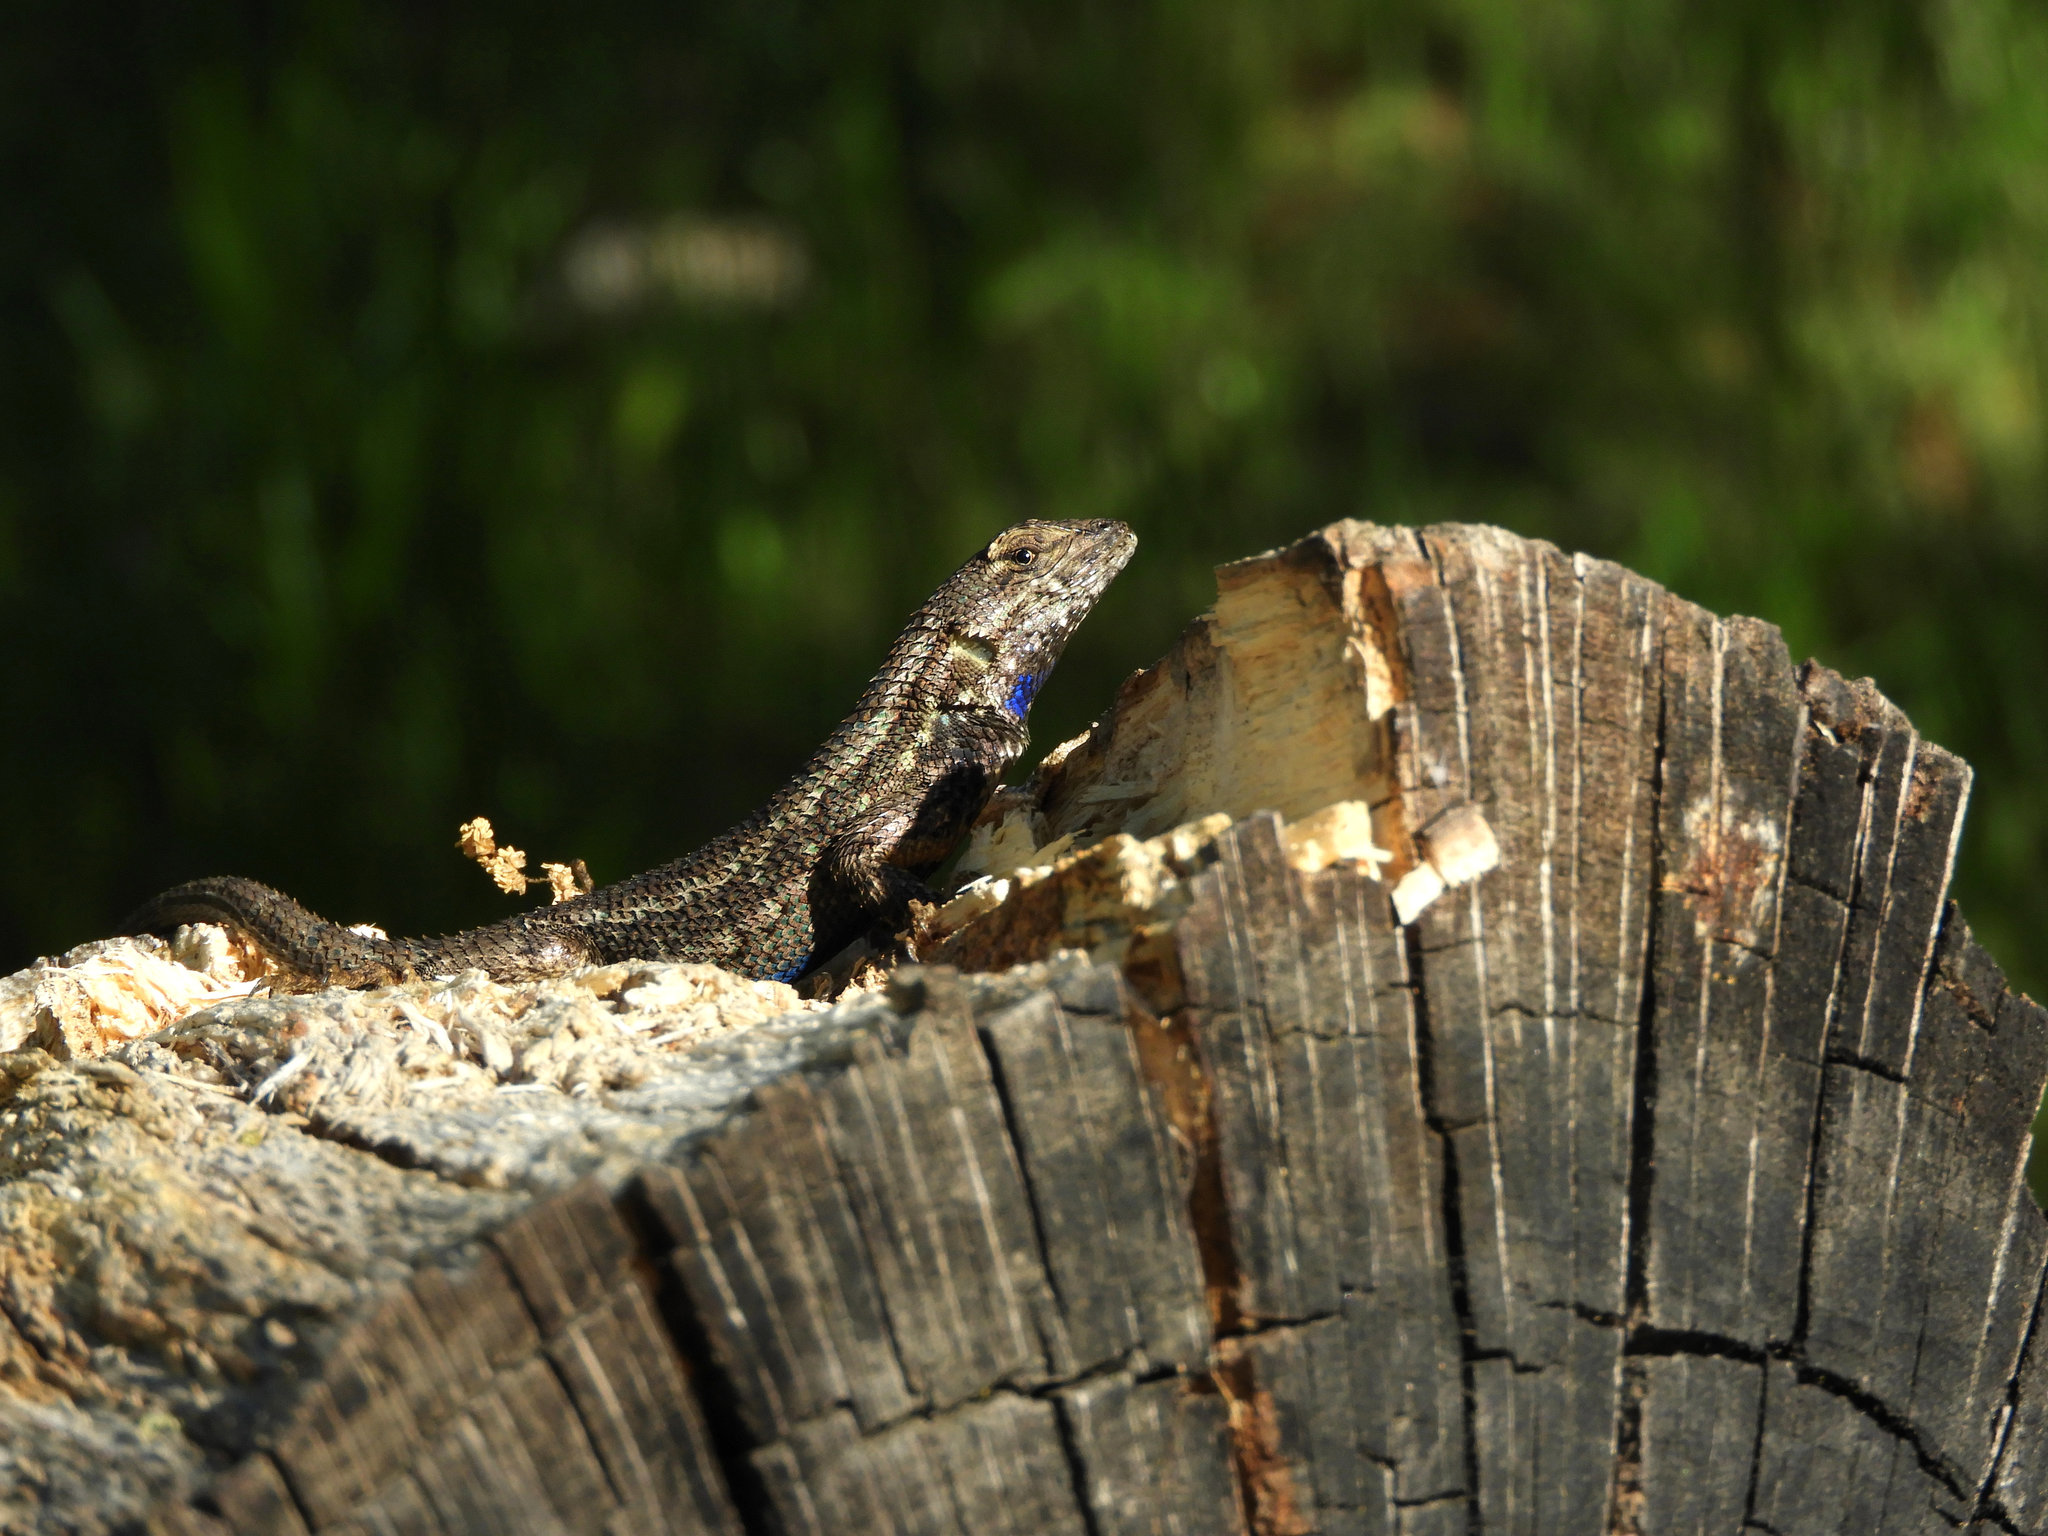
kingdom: Animalia
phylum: Chordata
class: Squamata
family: Phrynosomatidae
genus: Sceloporus
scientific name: Sceloporus occidentalis
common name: Western fence lizard
